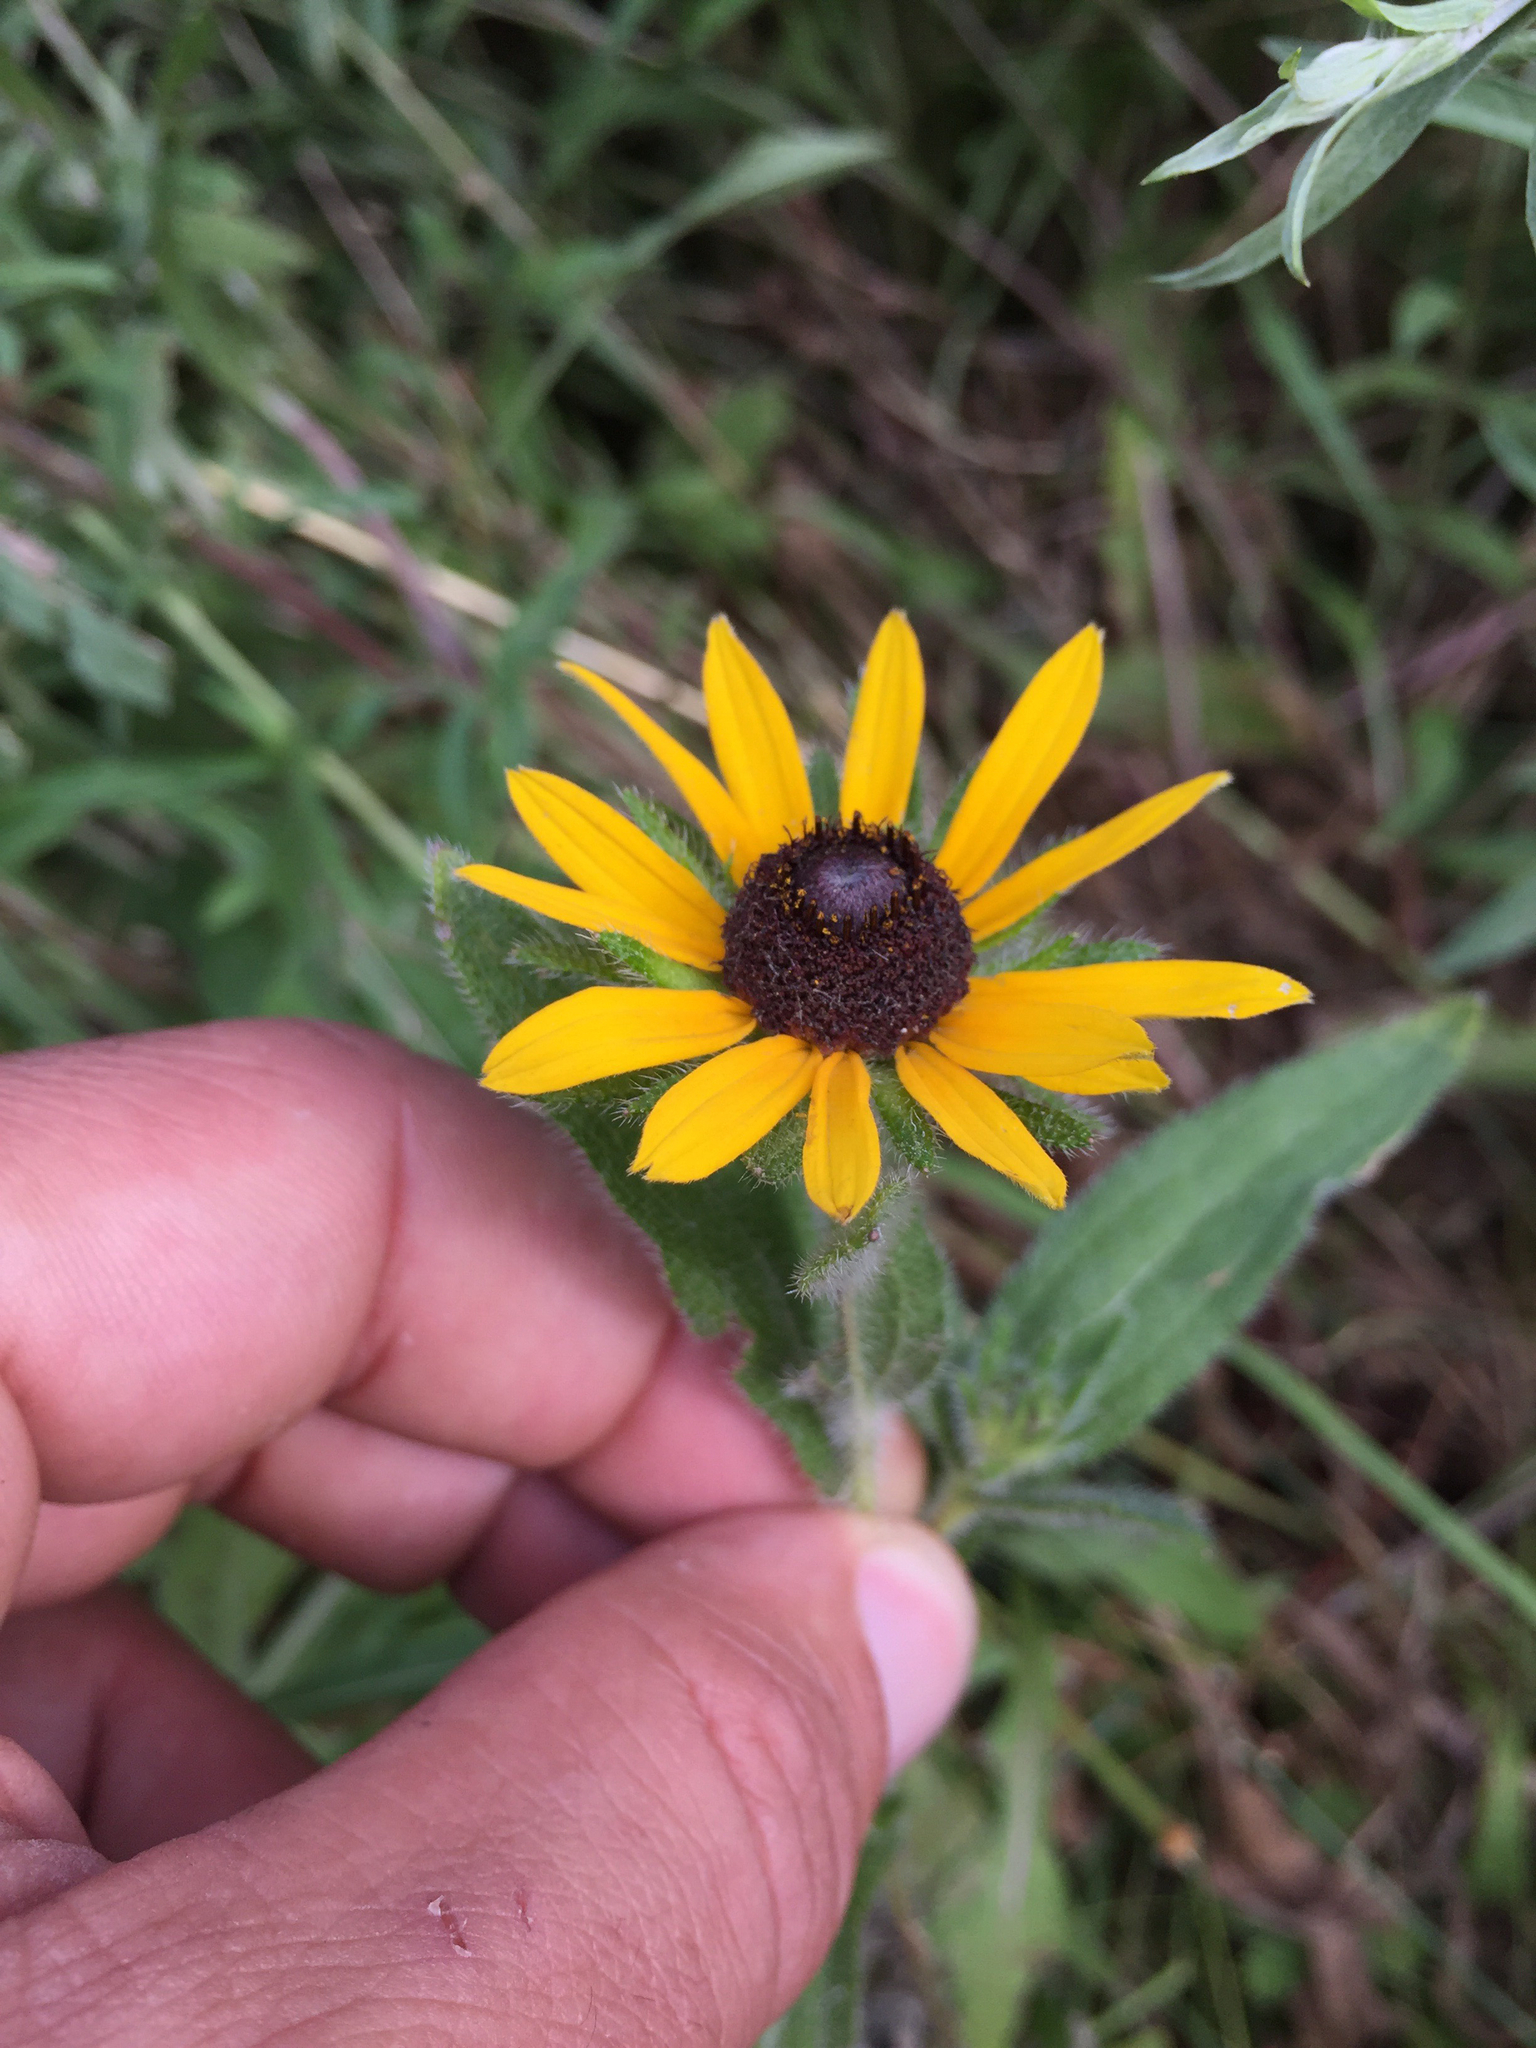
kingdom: Plantae
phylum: Tracheophyta
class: Magnoliopsida
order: Asterales
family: Asteraceae
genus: Rudbeckia
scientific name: Rudbeckia hirta
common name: Black-eyed-susan
